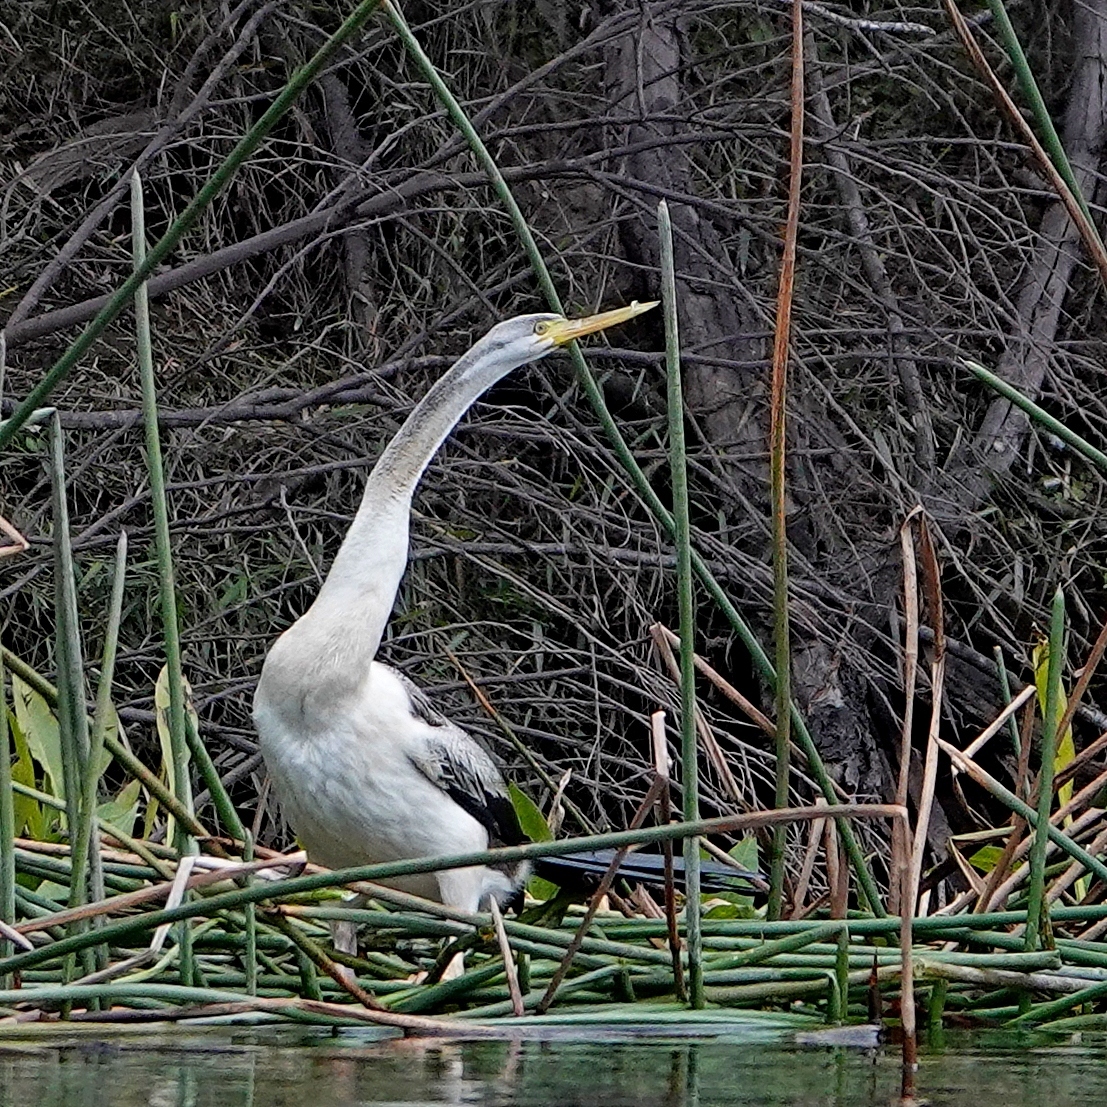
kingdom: Animalia
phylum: Chordata
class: Aves
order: Suliformes
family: Anhingidae
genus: Anhinga
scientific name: Anhinga novaehollandiae
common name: Australasian darter
